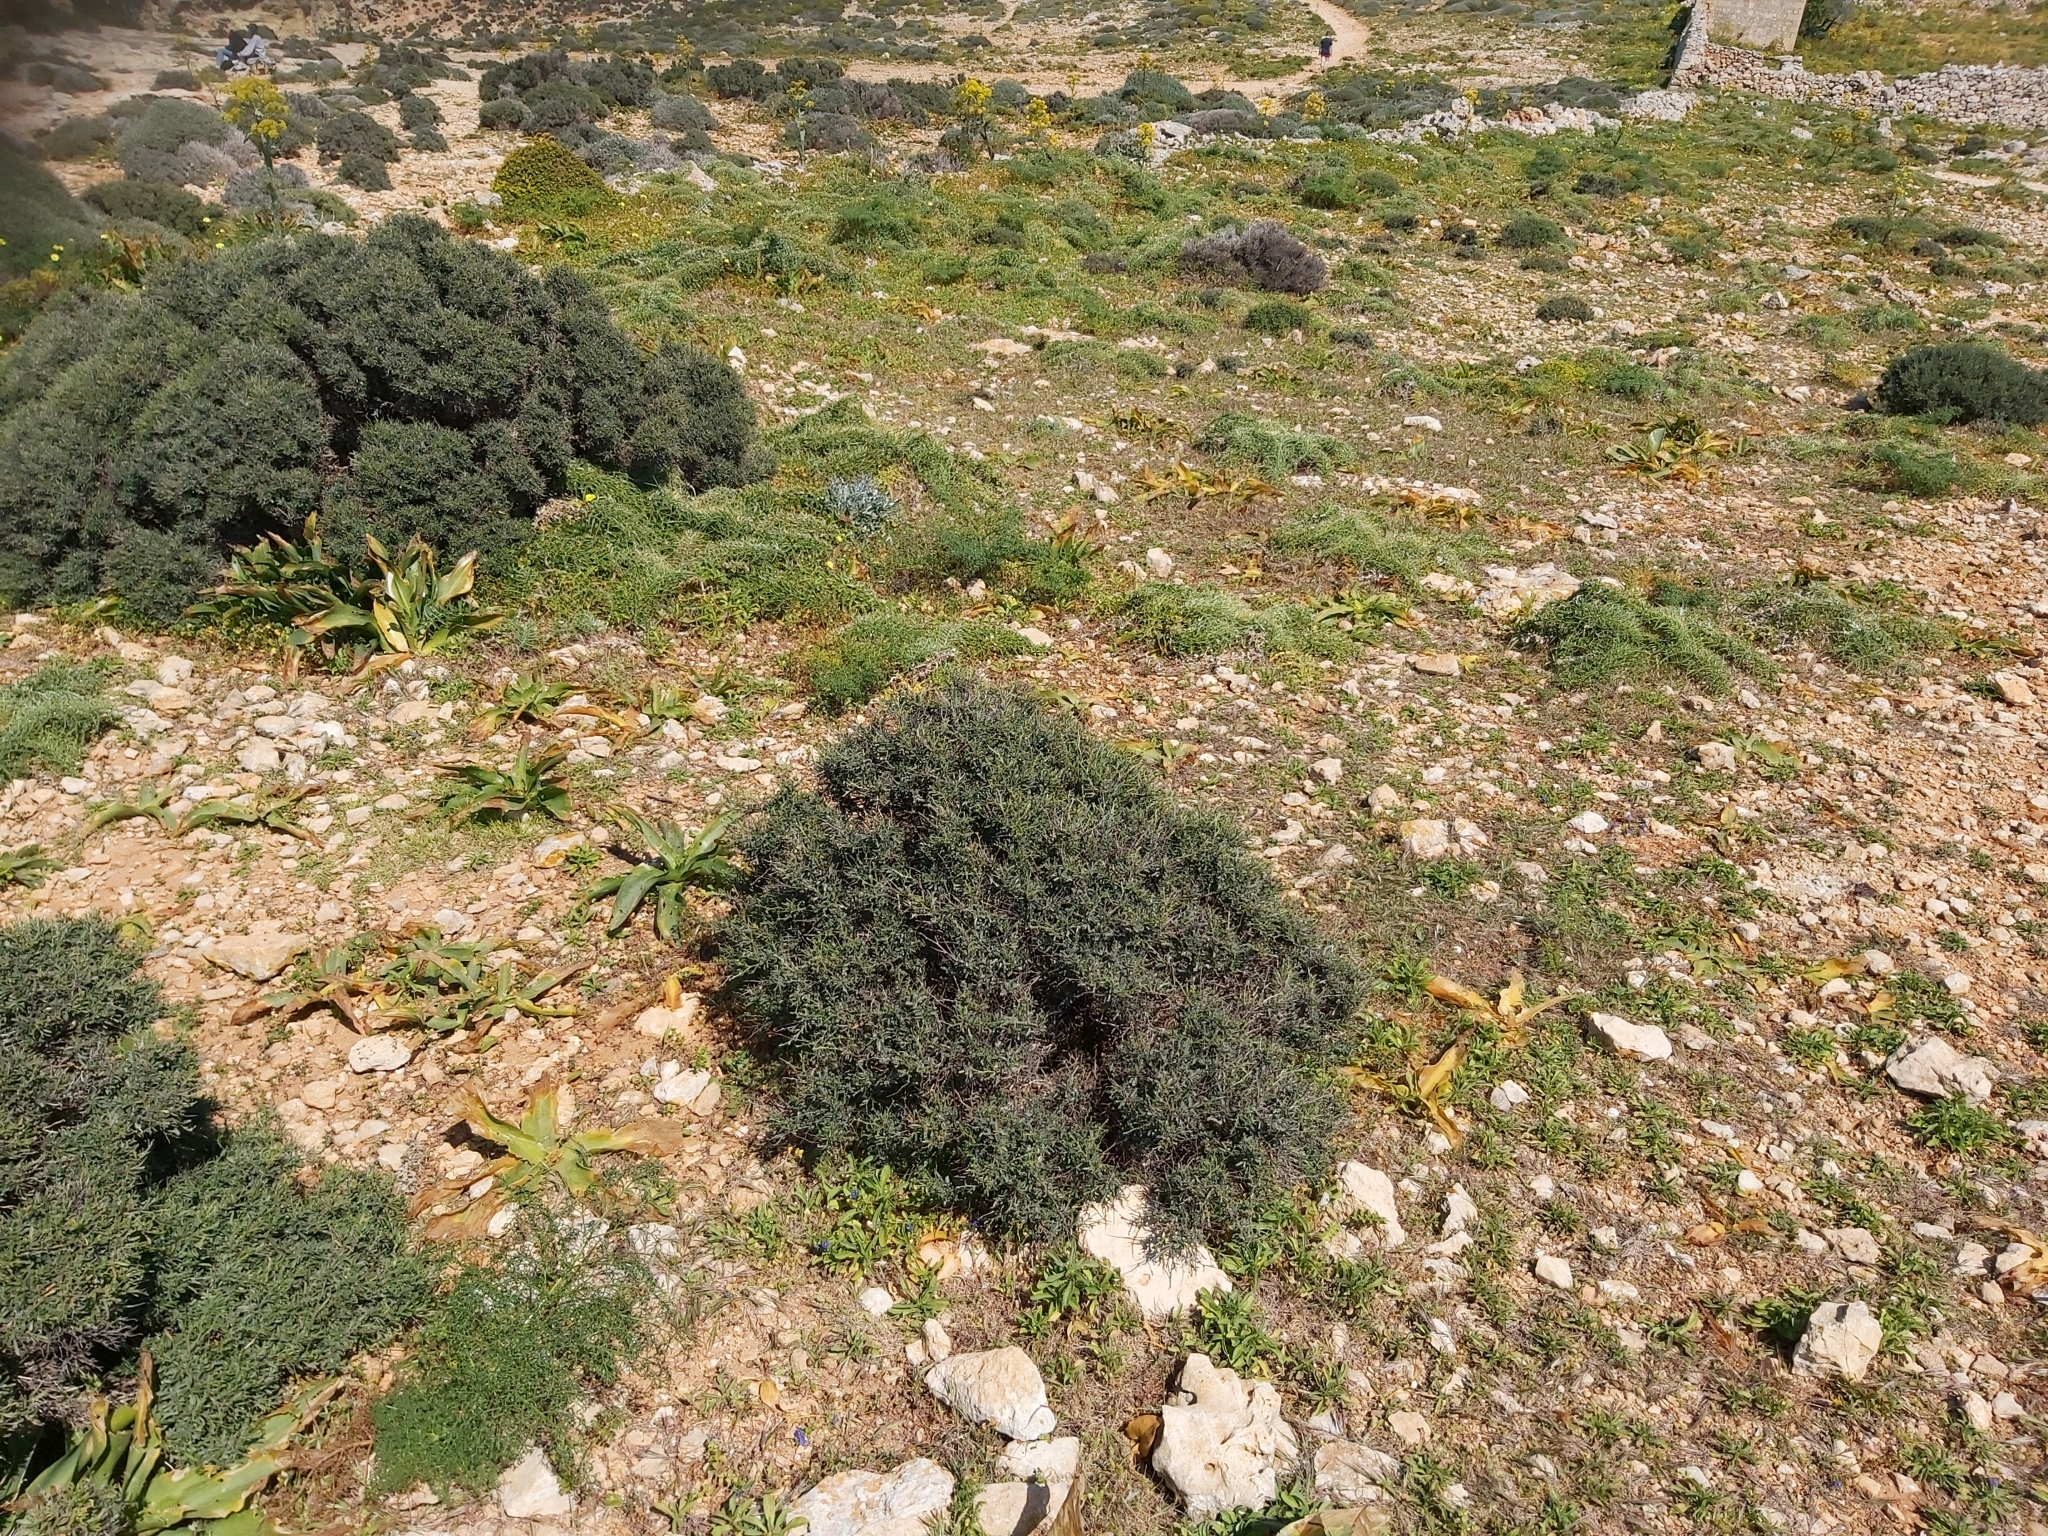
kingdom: Plantae
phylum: Tracheophyta
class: Magnoliopsida
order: Fabales
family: Fabaceae
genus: Anthyllis
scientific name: Anthyllis hermanniae
